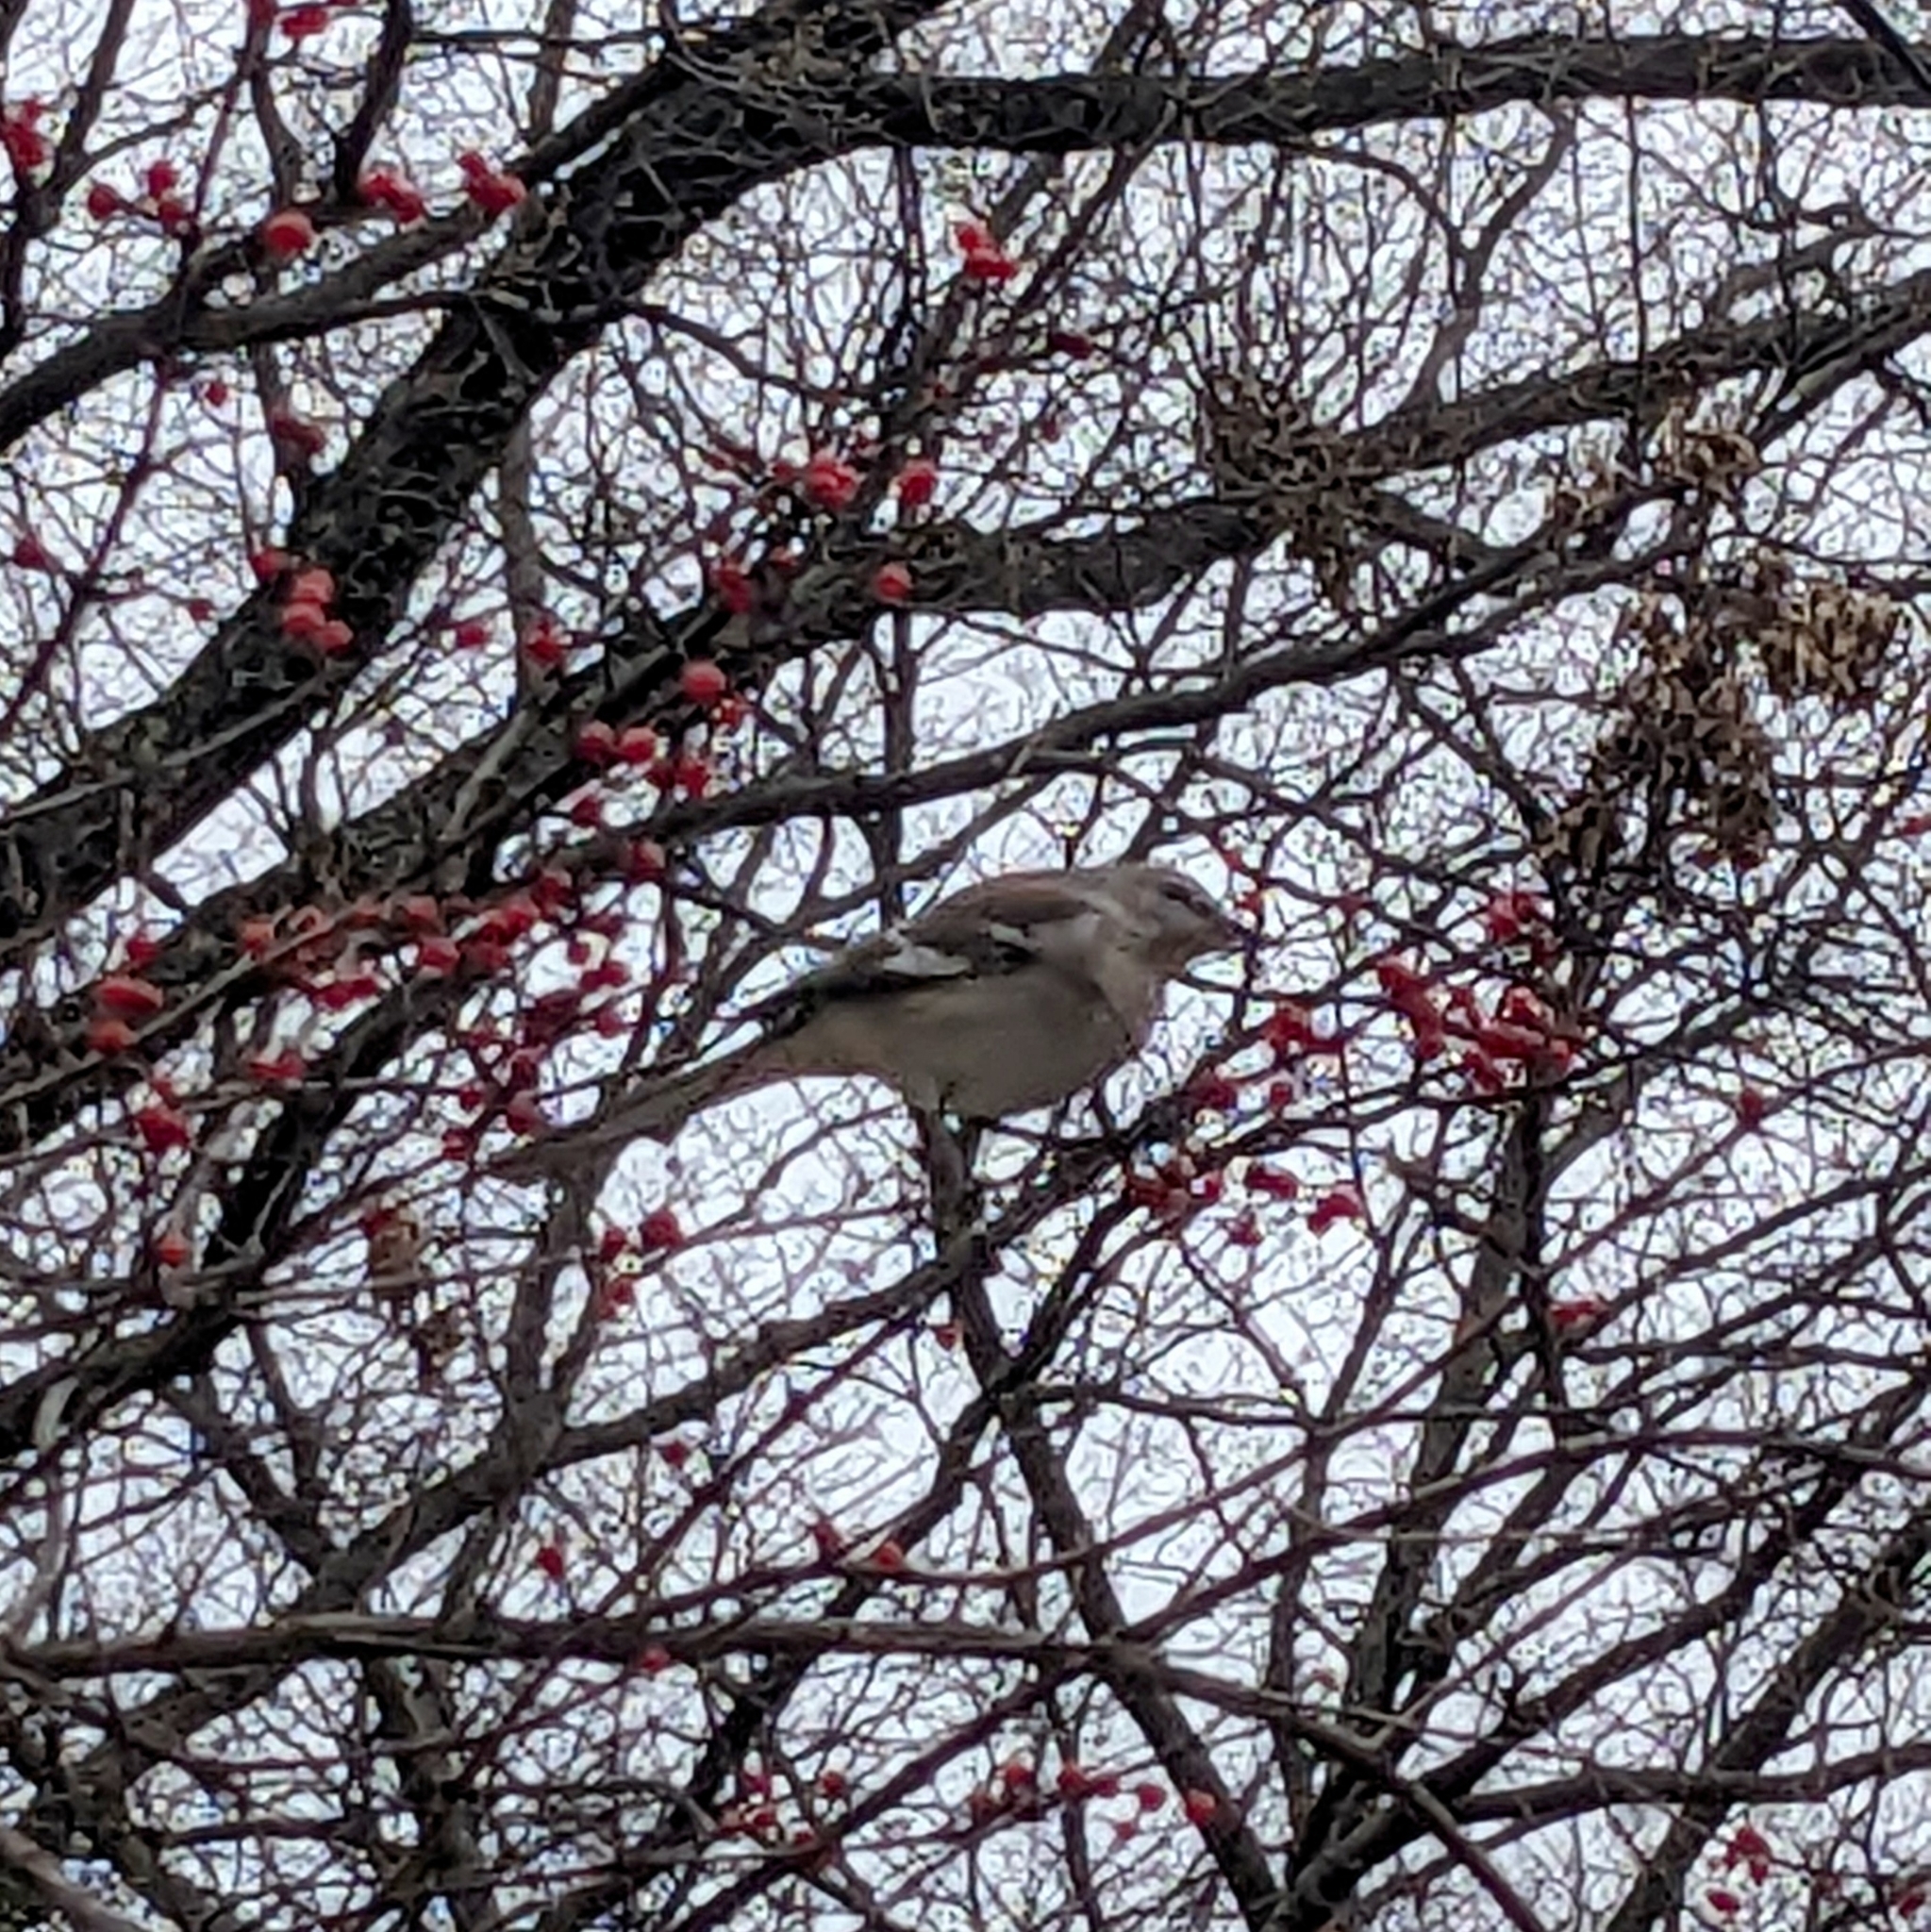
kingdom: Animalia
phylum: Chordata
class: Aves
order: Passeriformes
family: Mimidae
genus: Mimus
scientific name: Mimus polyglottos
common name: Northern mockingbird
